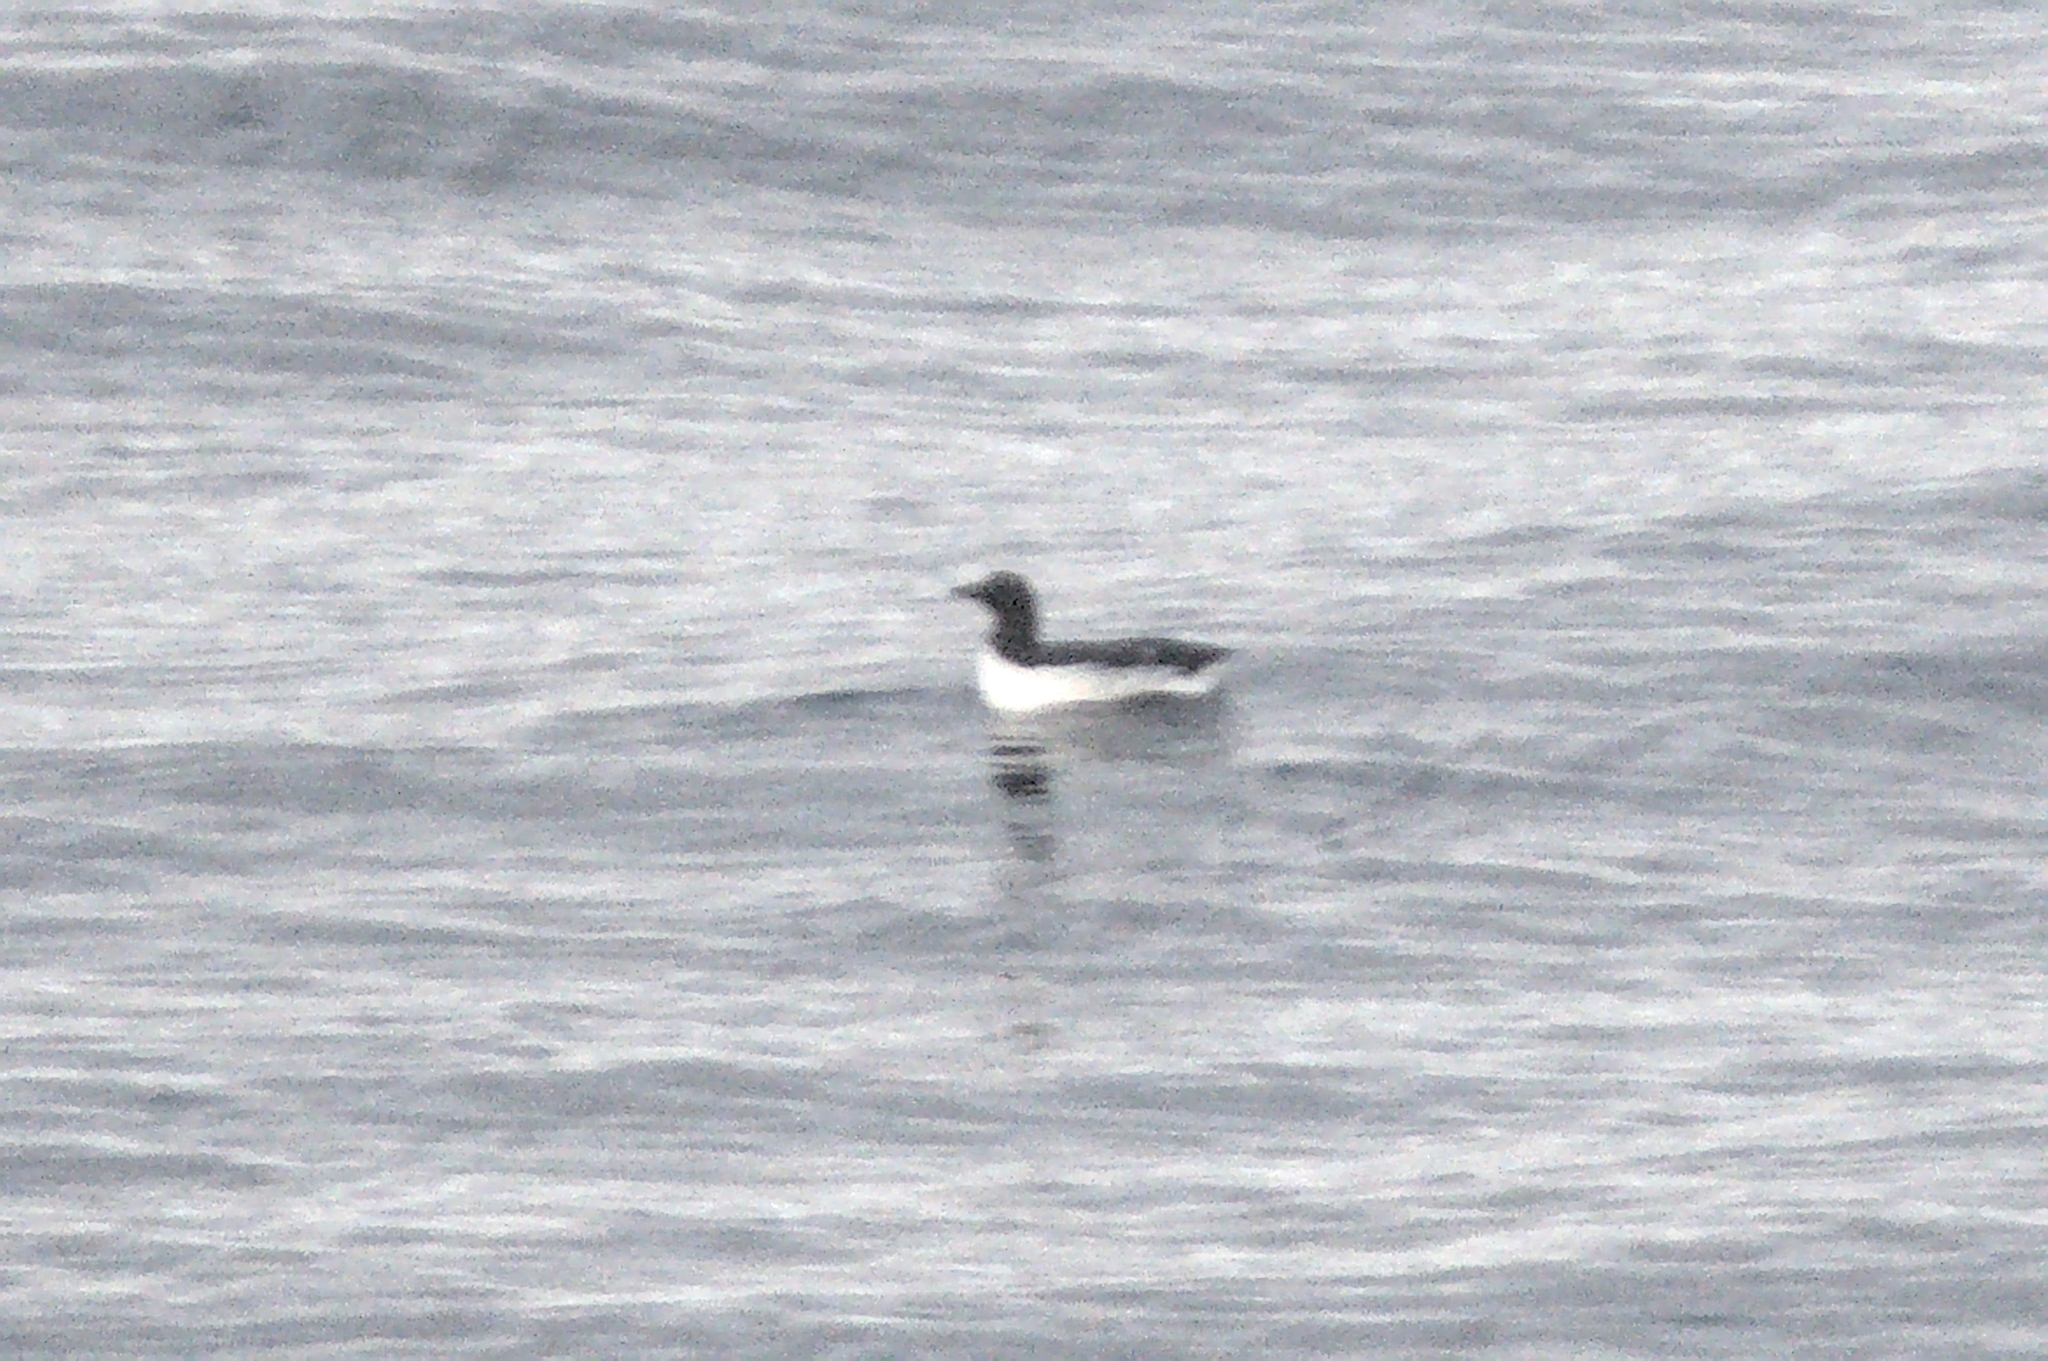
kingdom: Animalia
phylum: Chordata
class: Aves
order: Charadriiformes
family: Alcidae
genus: Uria
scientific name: Uria aalge
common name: Common murre
